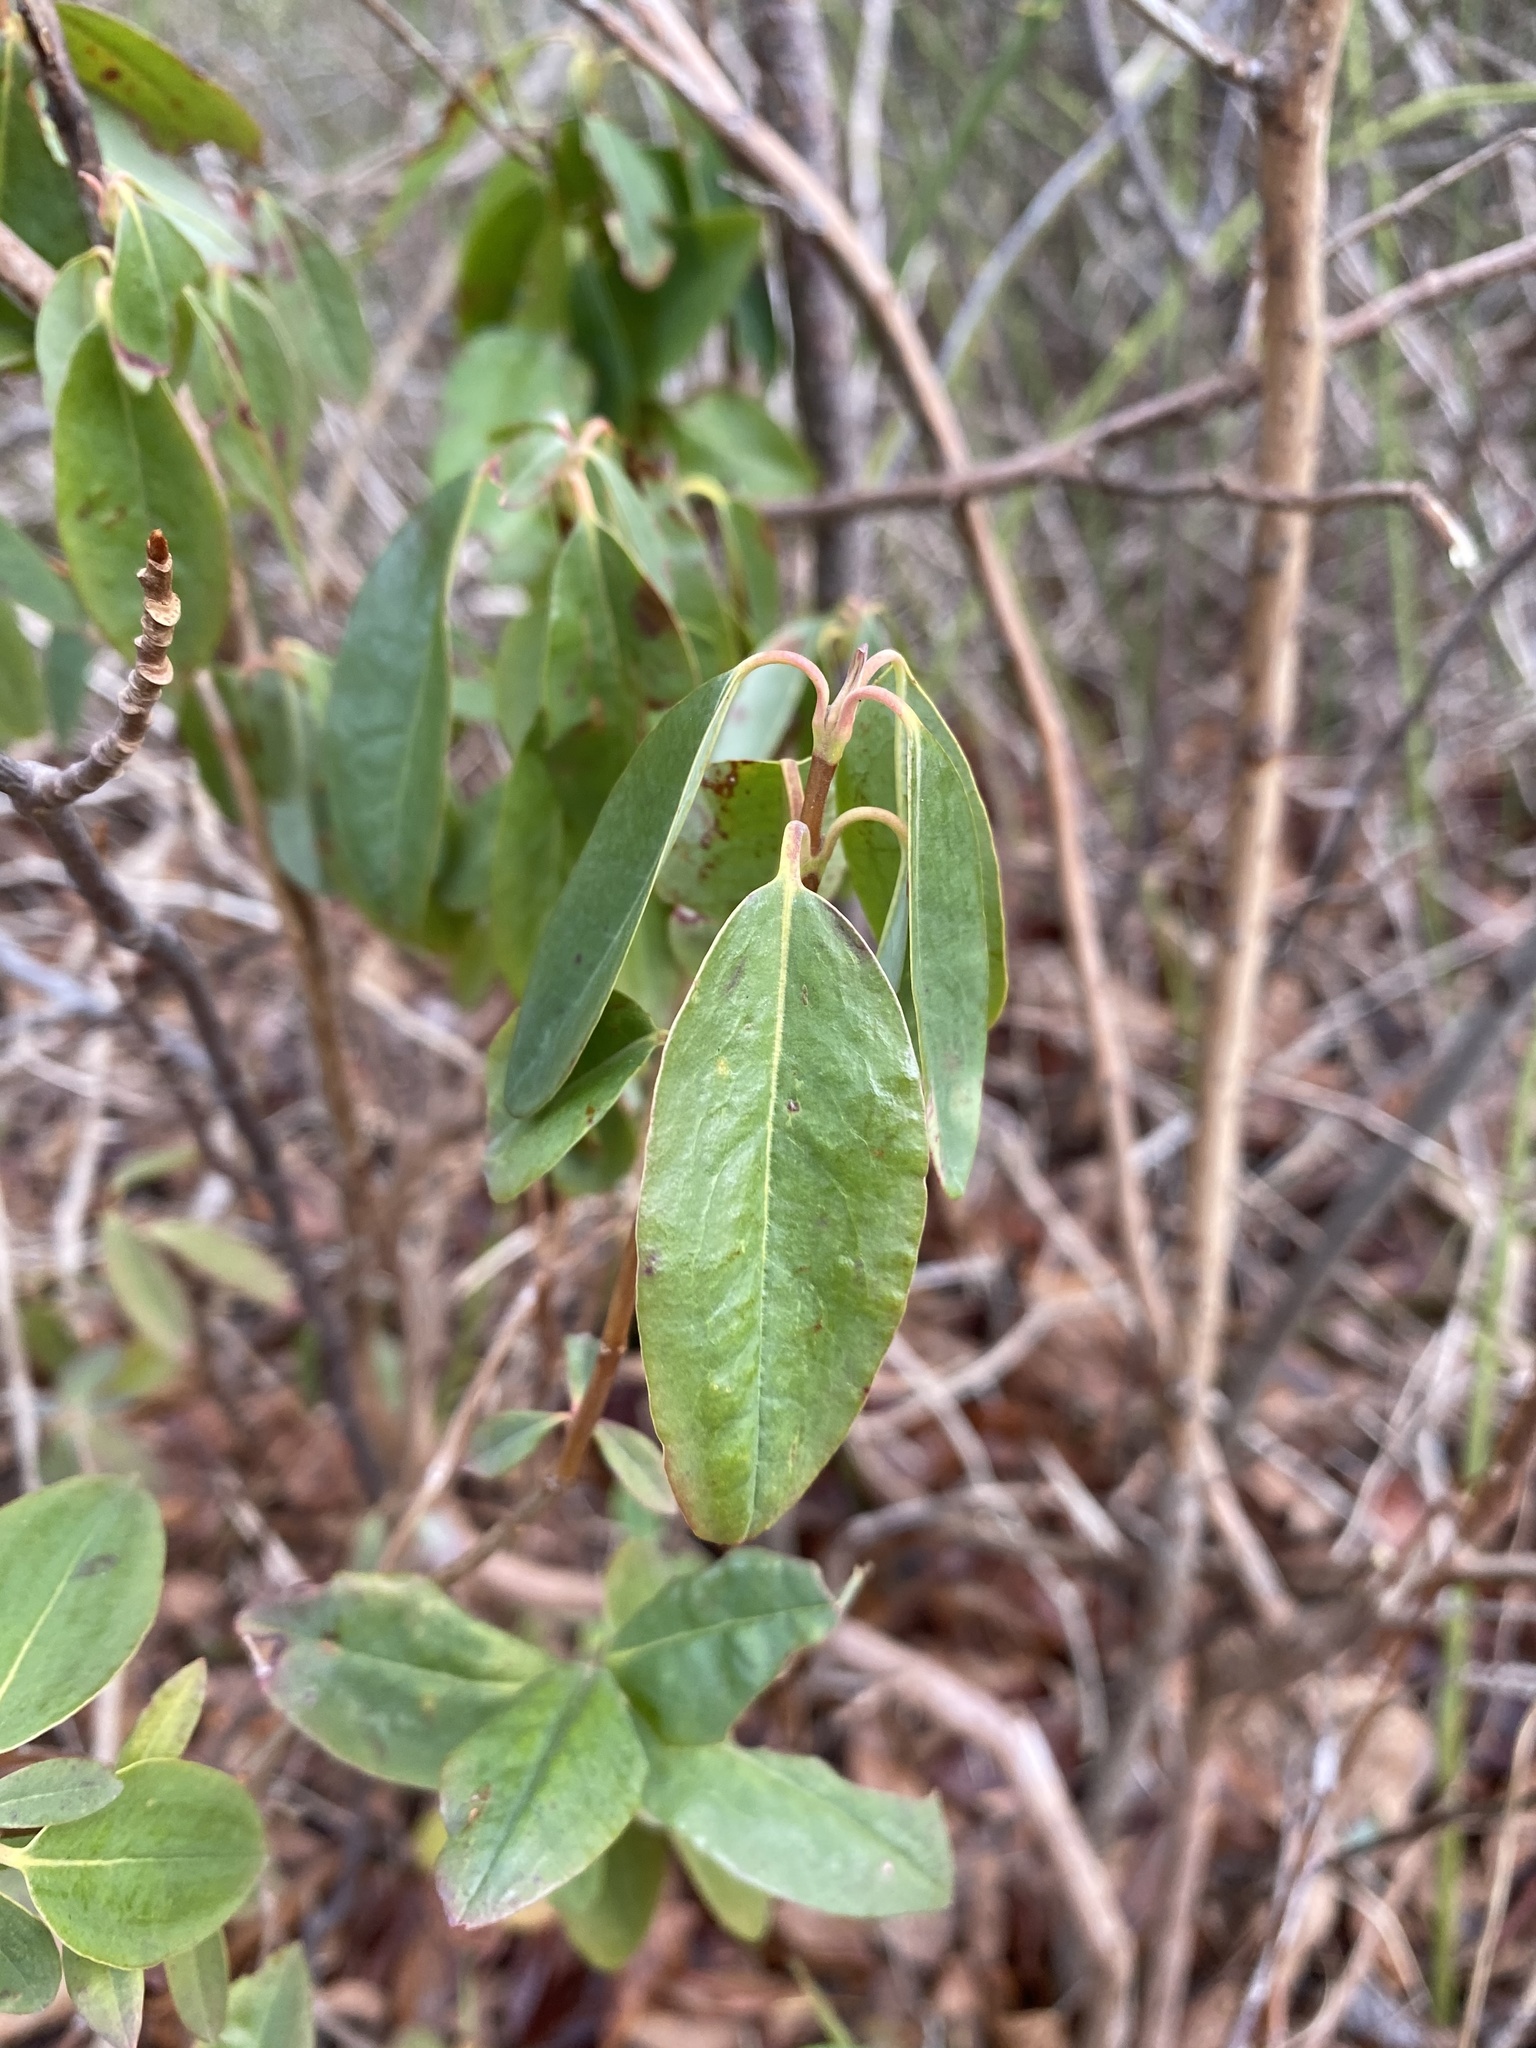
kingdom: Plantae
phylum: Tracheophyta
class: Magnoliopsida
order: Ericales
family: Ericaceae
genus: Kalmia
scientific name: Kalmia angustifolia
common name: Sheep-laurel
